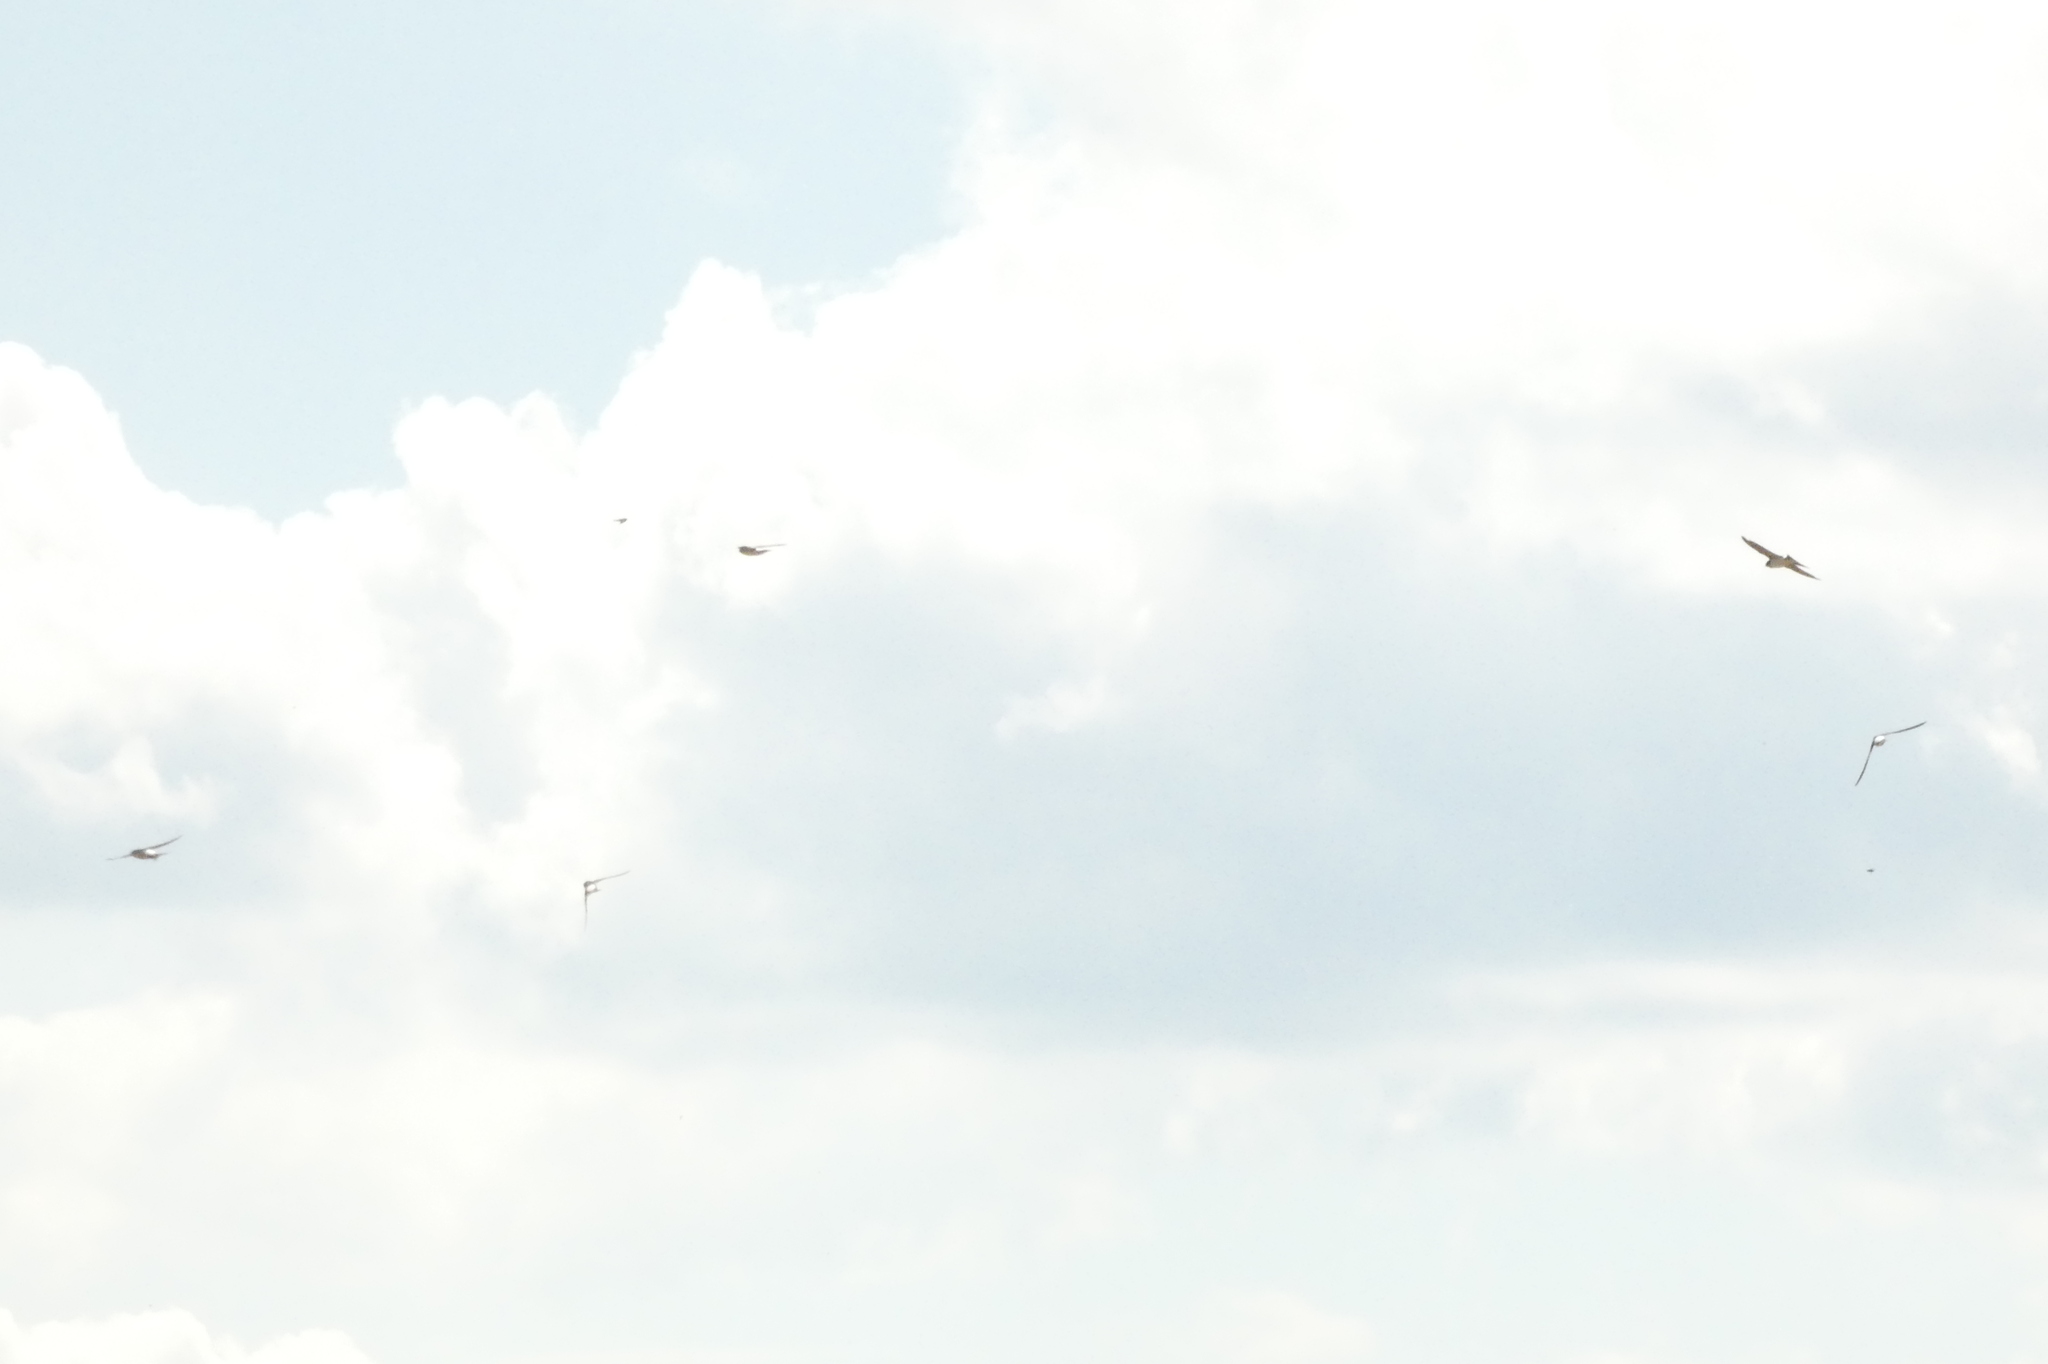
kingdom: Animalia
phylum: Chordata
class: Aves
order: Passeriformes
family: Hirundinidae
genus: Delichon
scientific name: Delichon urbicum
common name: Common house martin
